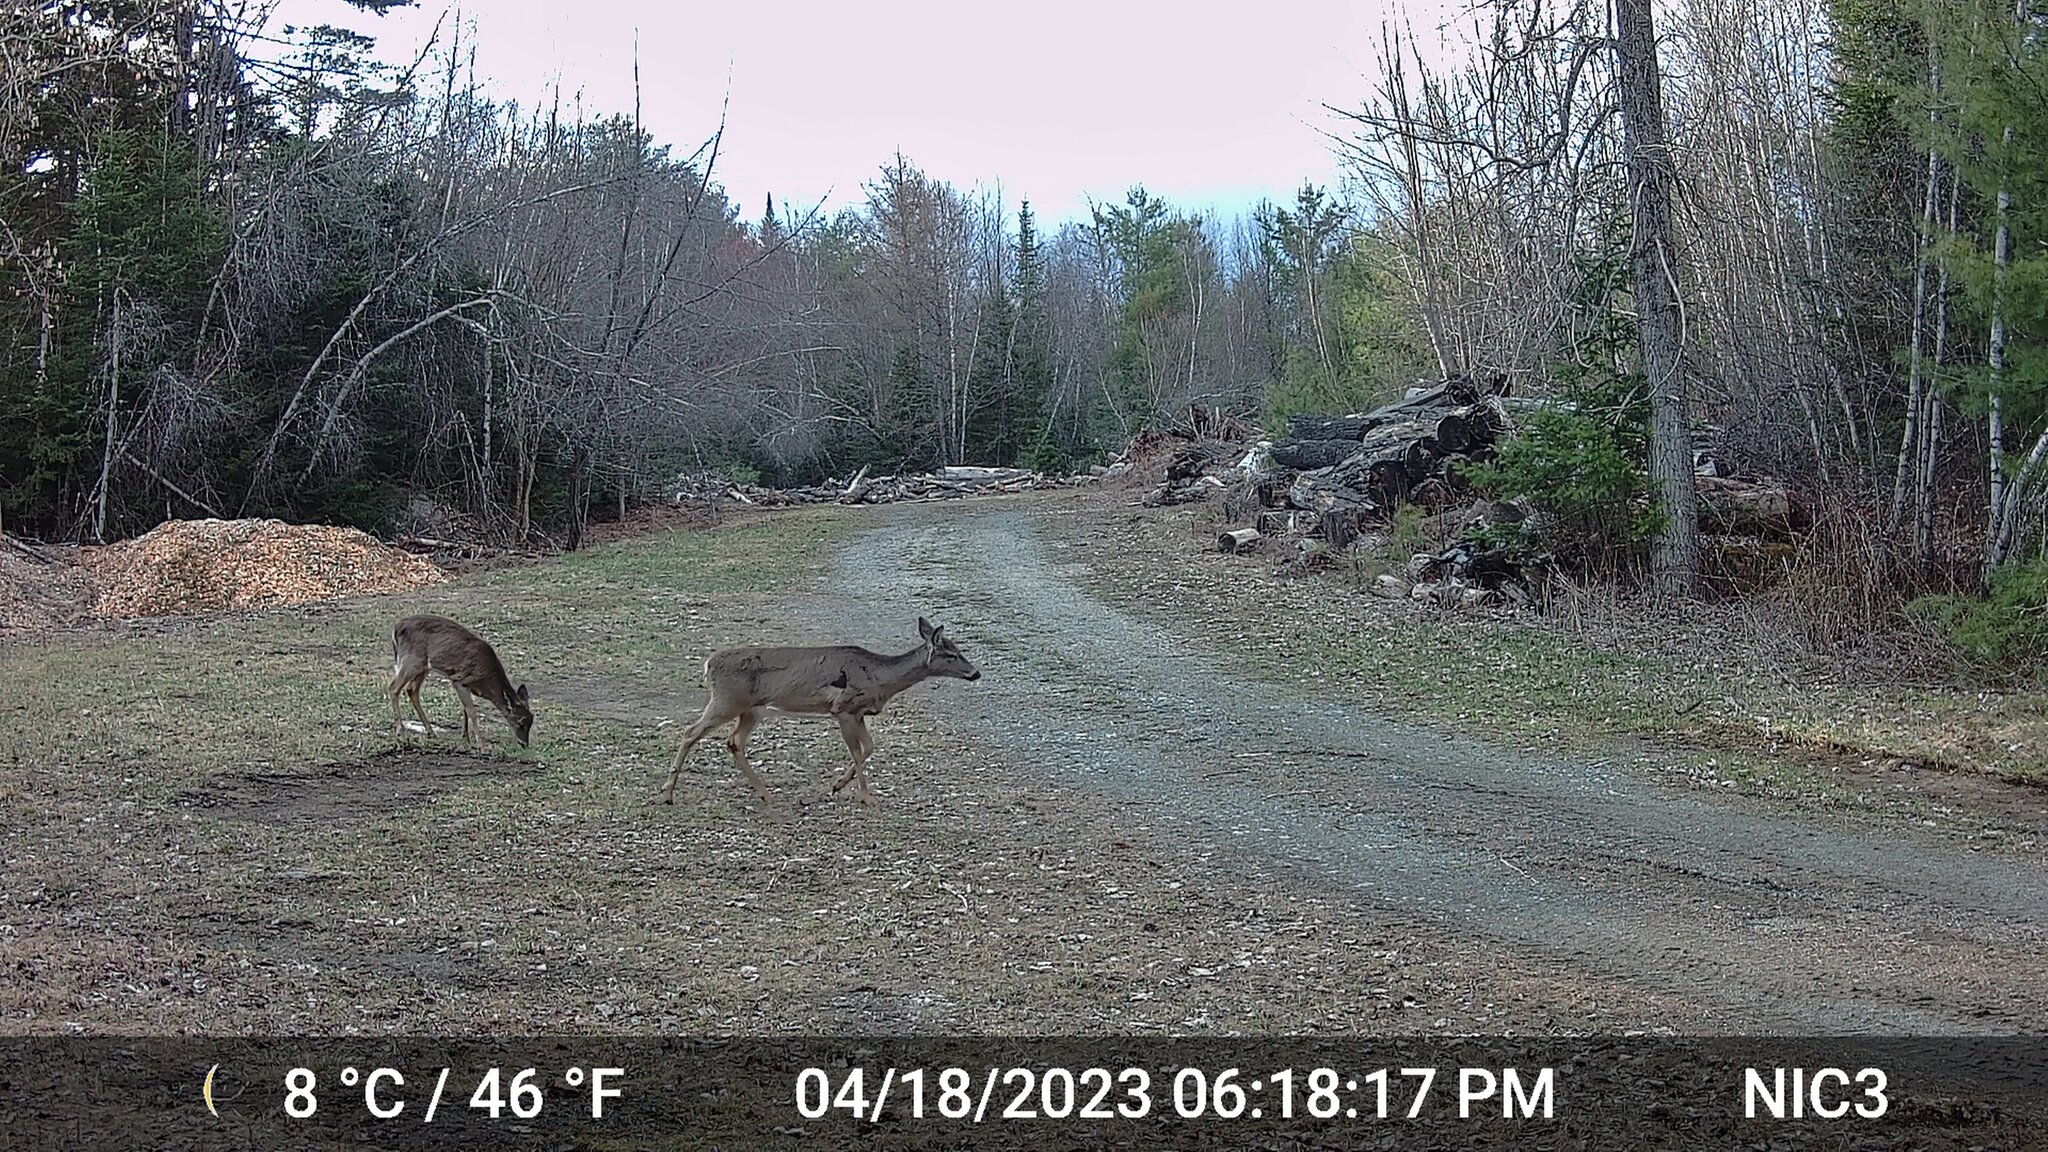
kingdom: Animalia
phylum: Chordata
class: Mammalia
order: Artiodactyla
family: Cervidae
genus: Odocoileus
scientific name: Odocoileus virginianus
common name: White-tailed deer
